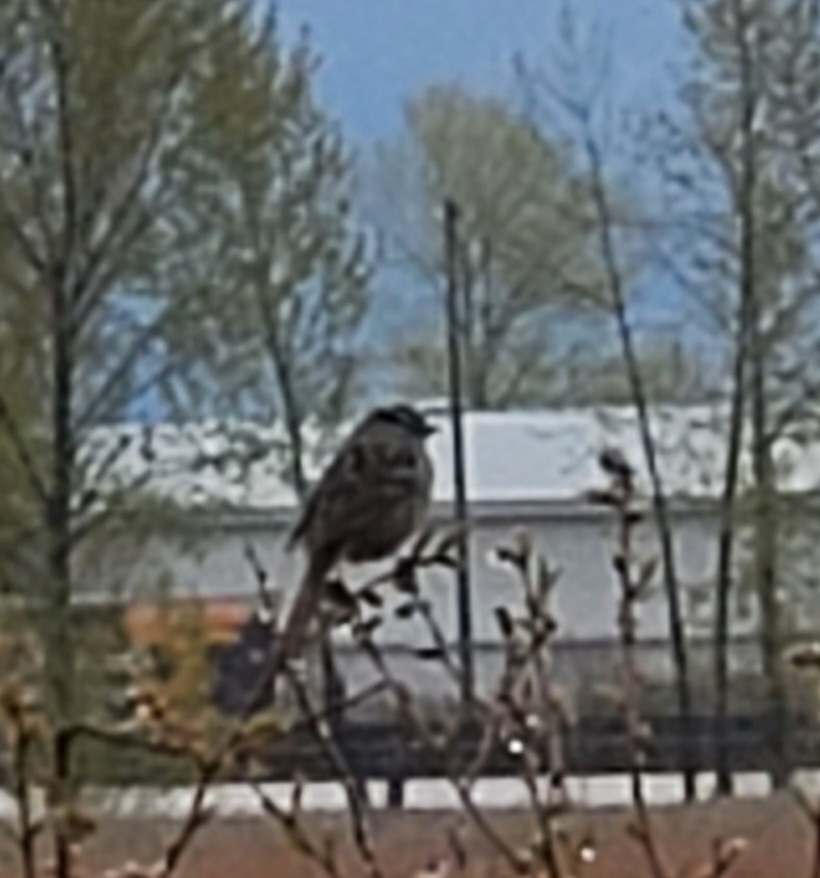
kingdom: Animalia
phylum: Chordata
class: Aves
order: Passeriformes
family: Passerellidae
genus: Zonotrichia
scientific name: Zonotrichia leucophrys
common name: White-crowned sparrow
